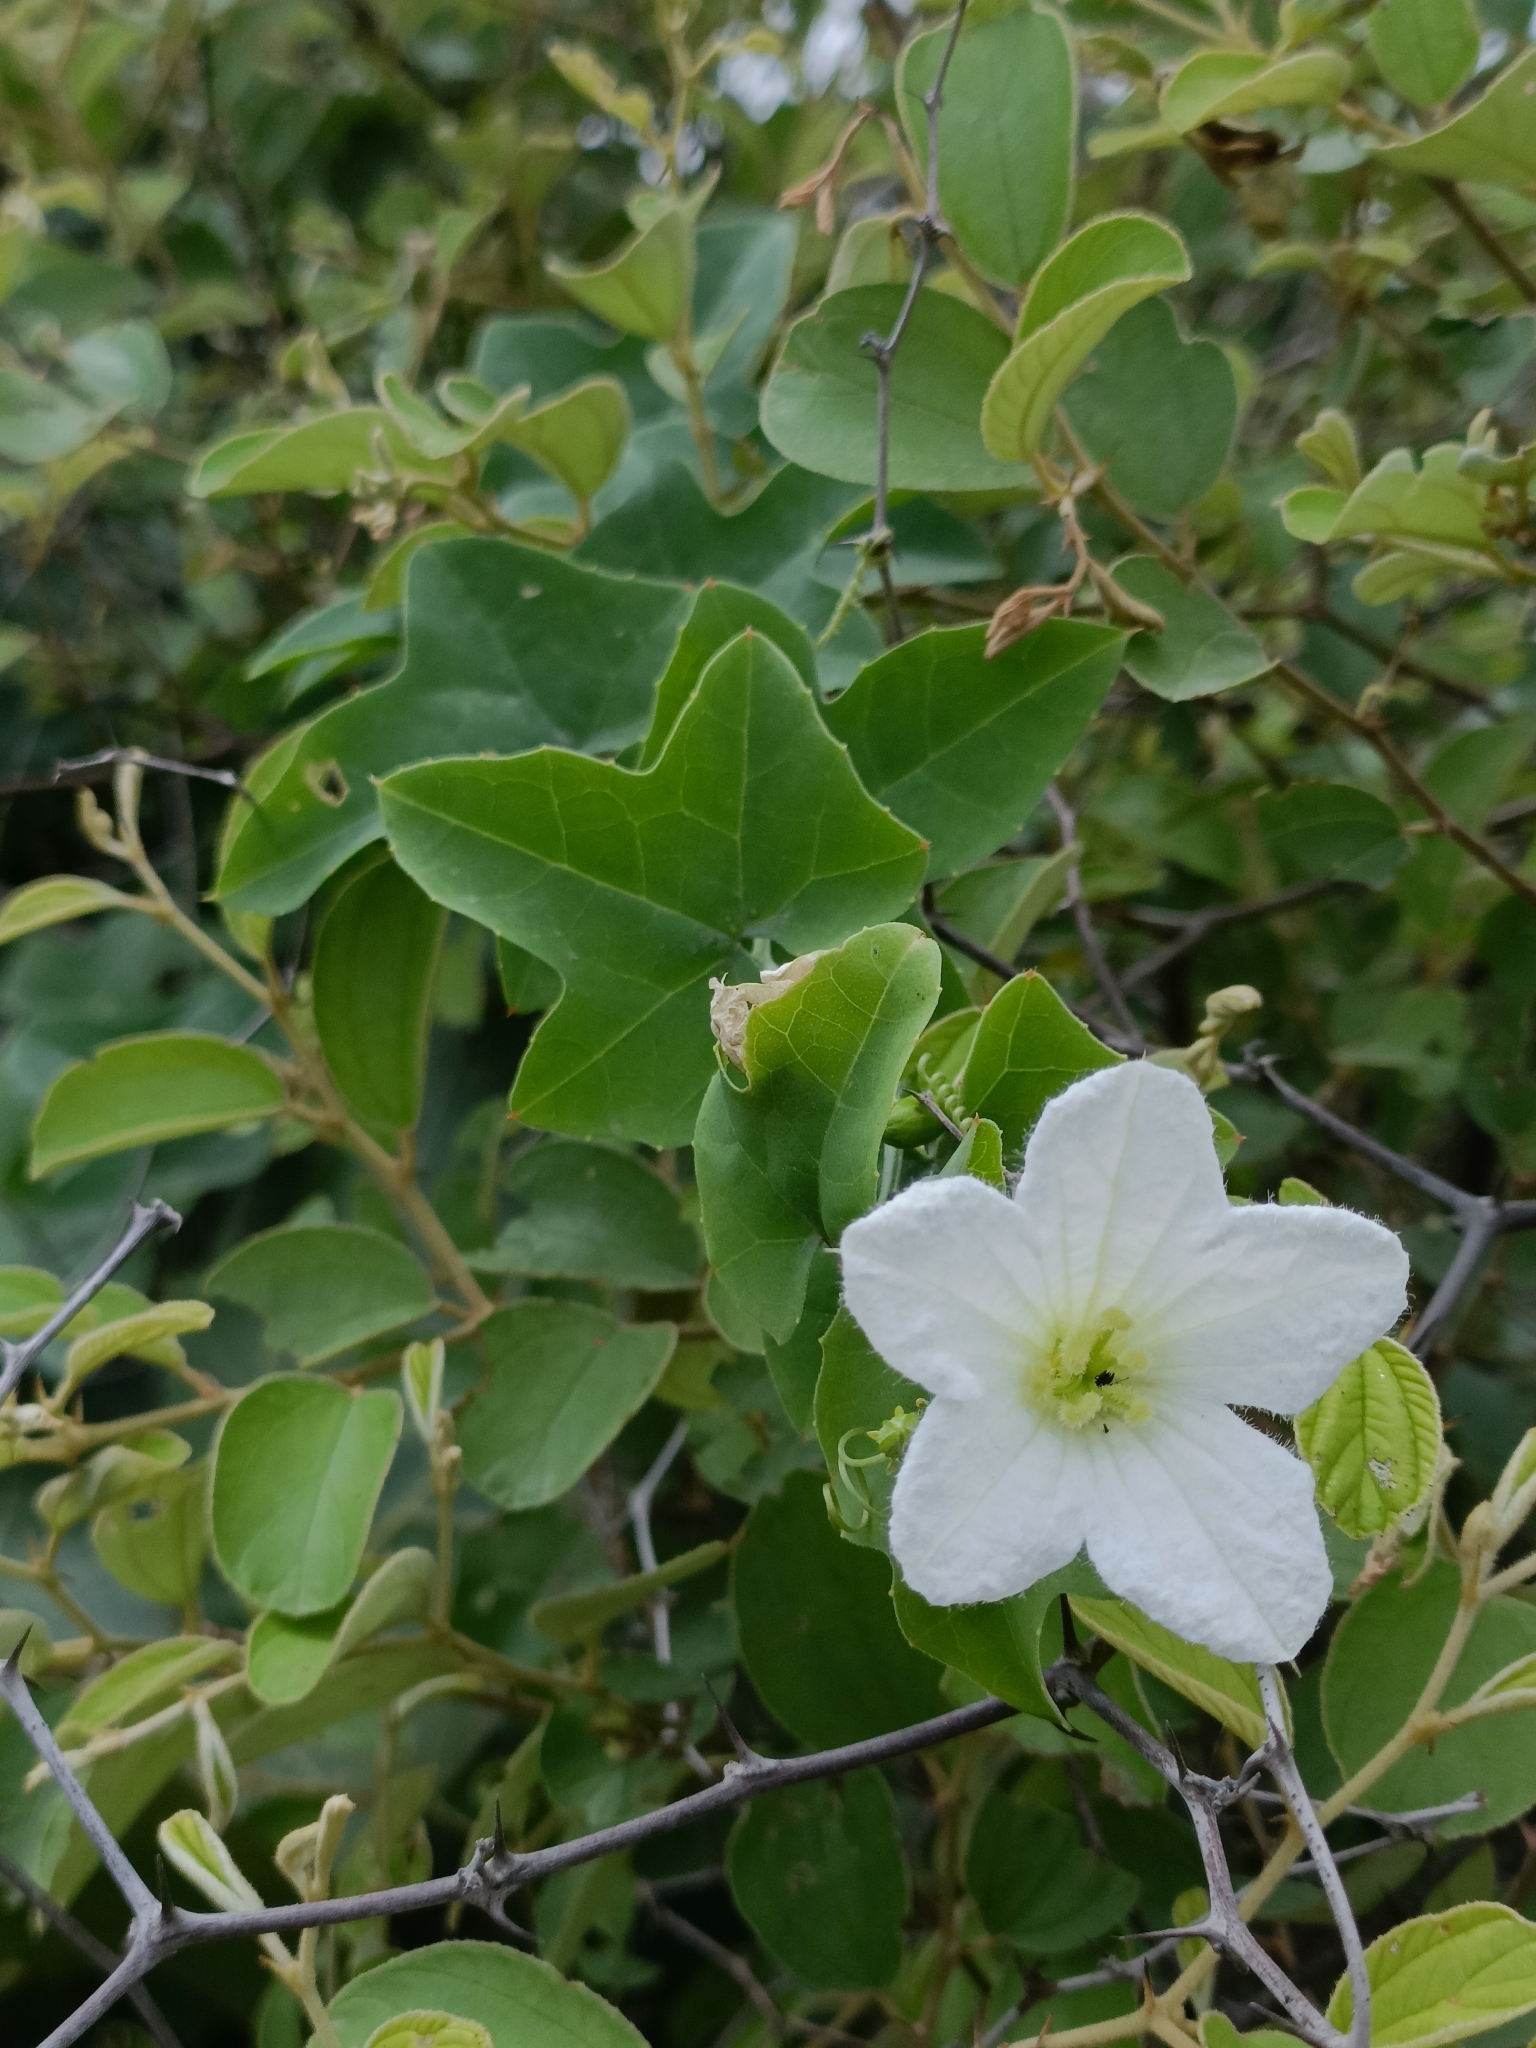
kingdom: Plantae
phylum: Tracheophyta
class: Magnoliopsida
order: Cucurbitales
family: Cucurbitaceae
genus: Coccinia
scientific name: Coccinia grandis
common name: Ivy gourd
